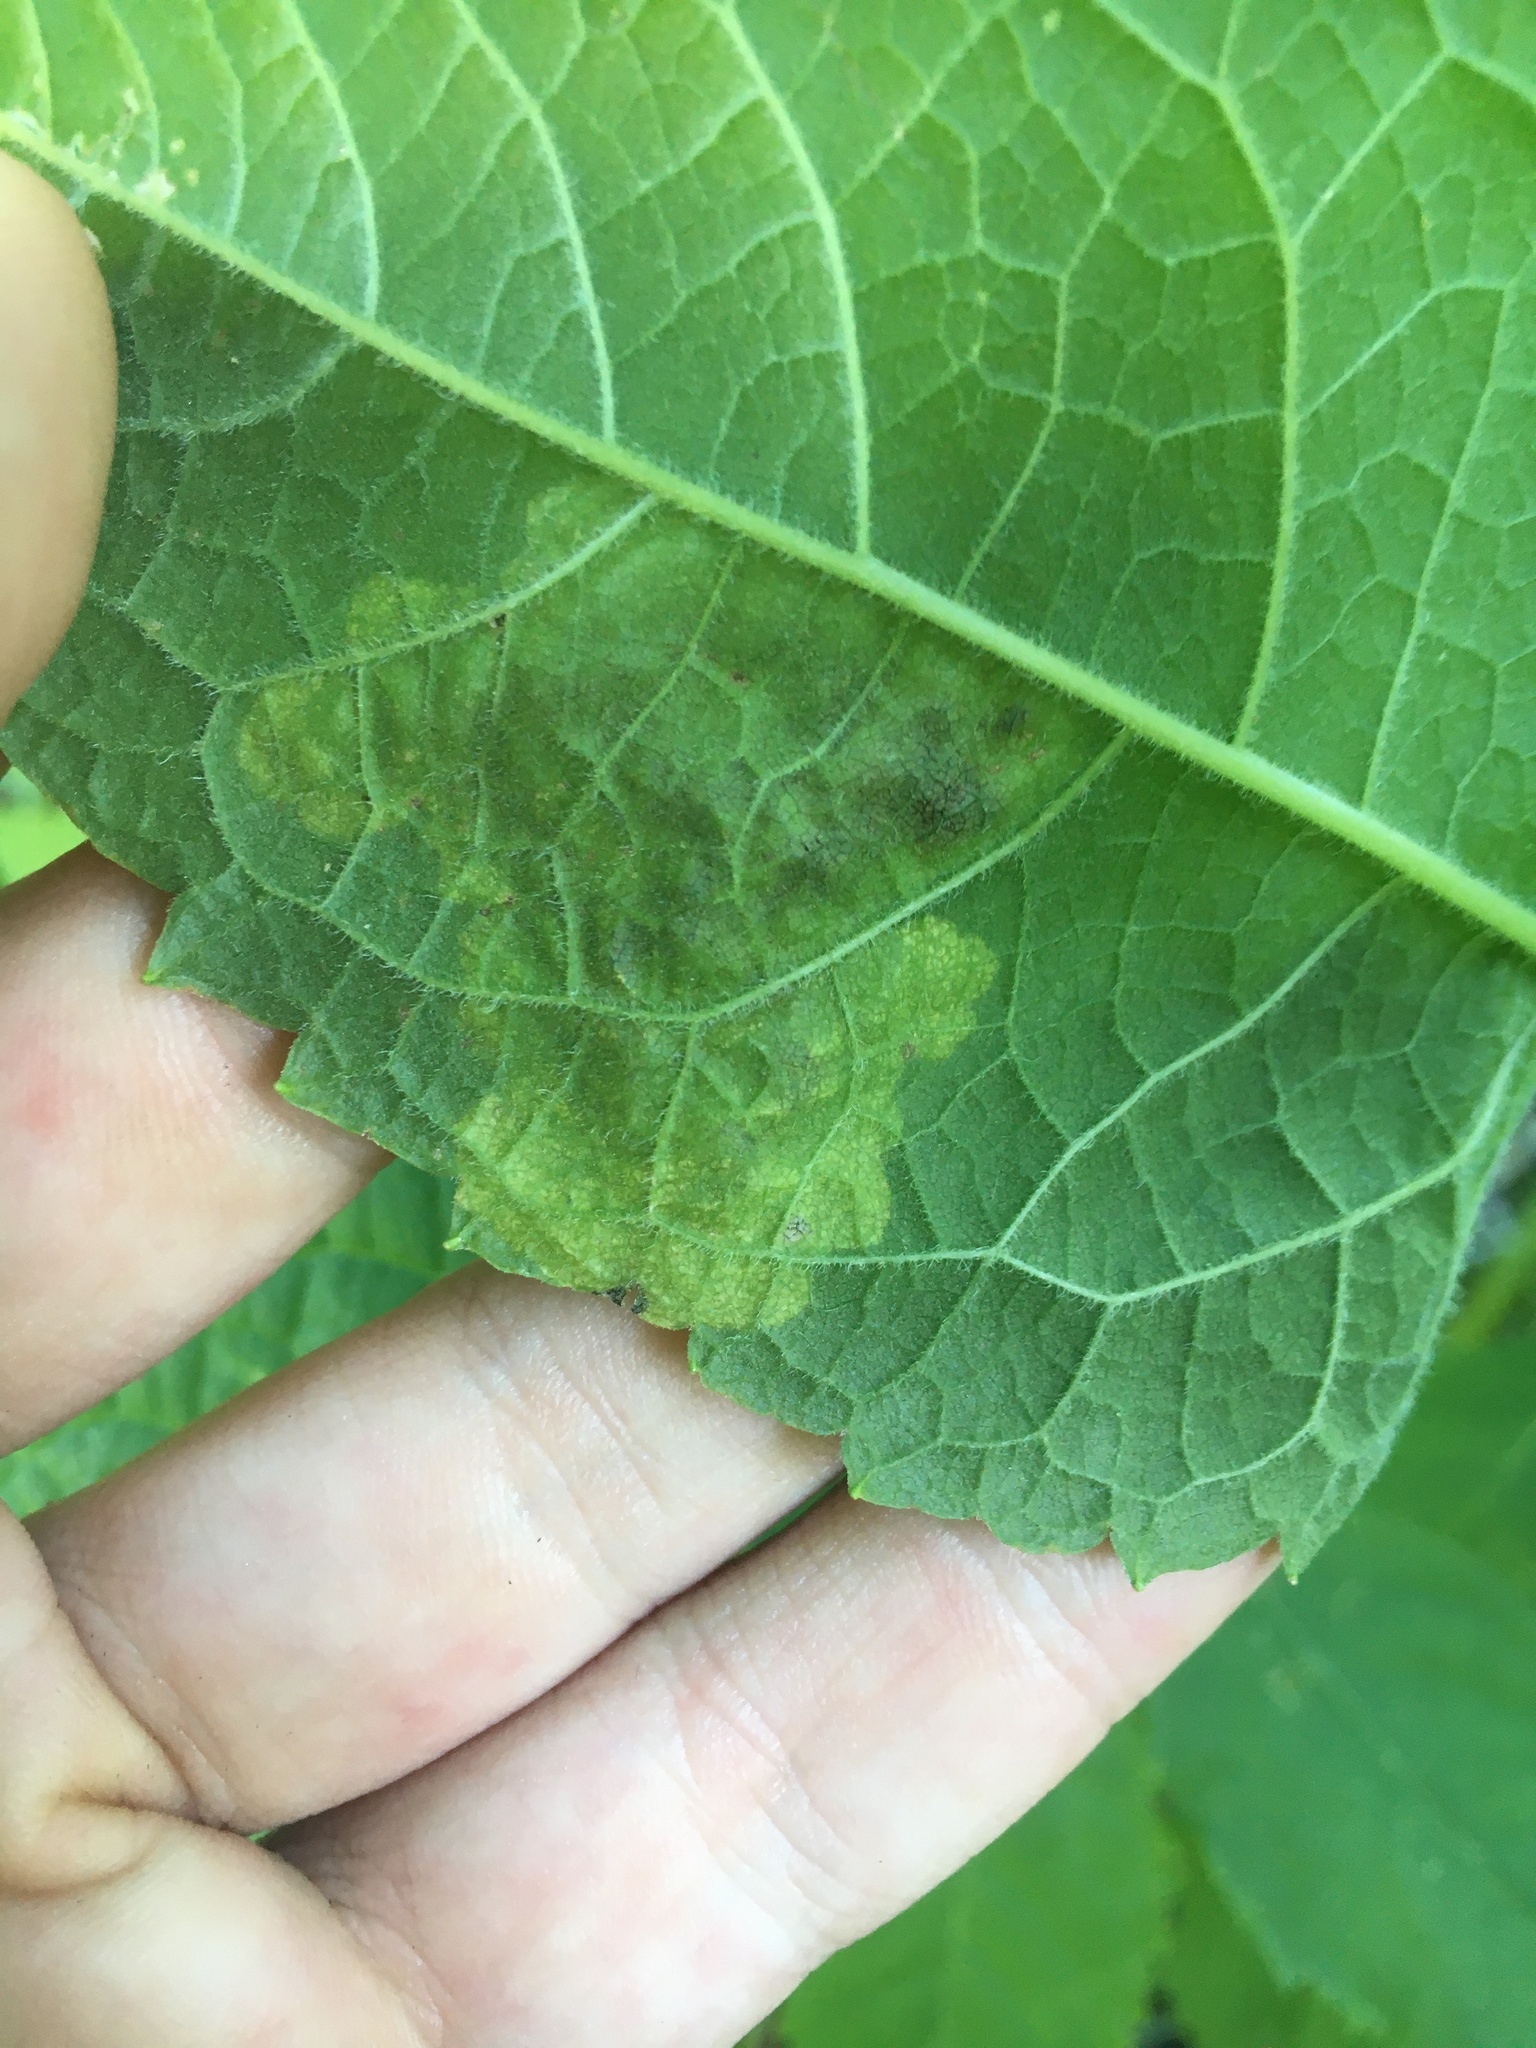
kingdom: Animalia
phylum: Arthropoda
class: Insecta
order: Diptera
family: Agromyzidae
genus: Calycomyza
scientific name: Calycomyza flavinotum
